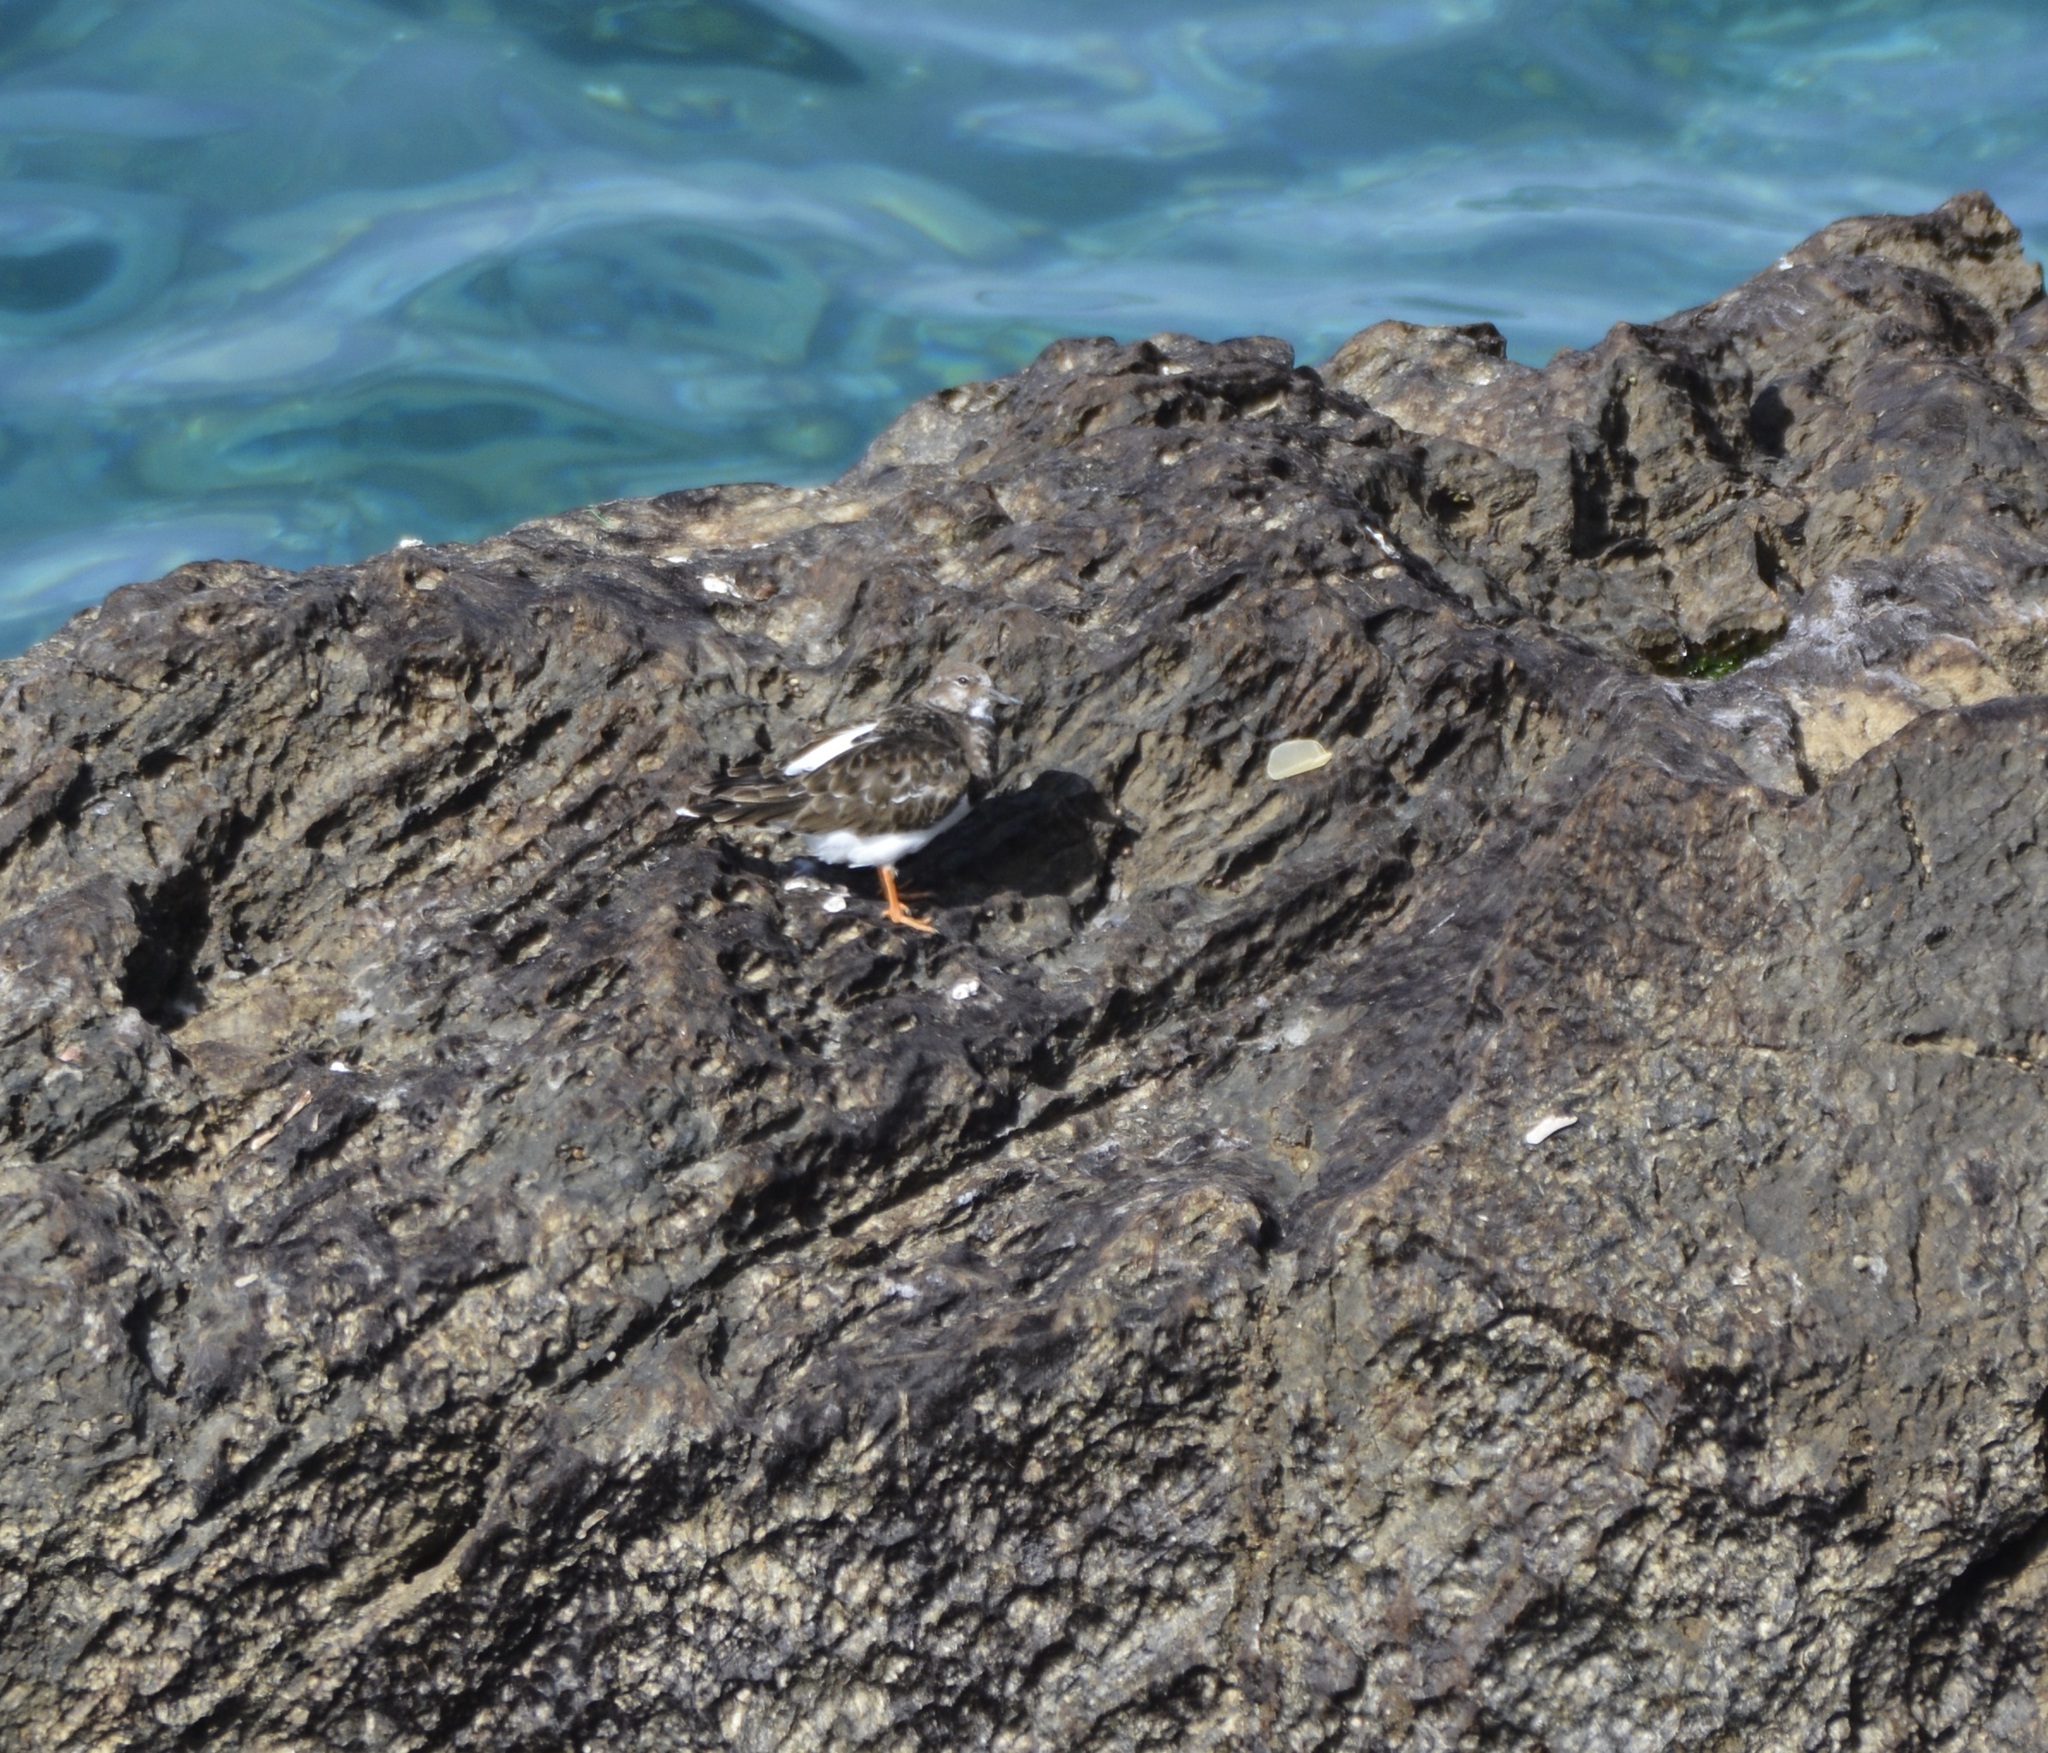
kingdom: Animalia
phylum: Chordata
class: Aves
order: Charadriiformes
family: Scolopacidae
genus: Arenaria
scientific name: Arenaria interpres
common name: Ruddy turnstone
